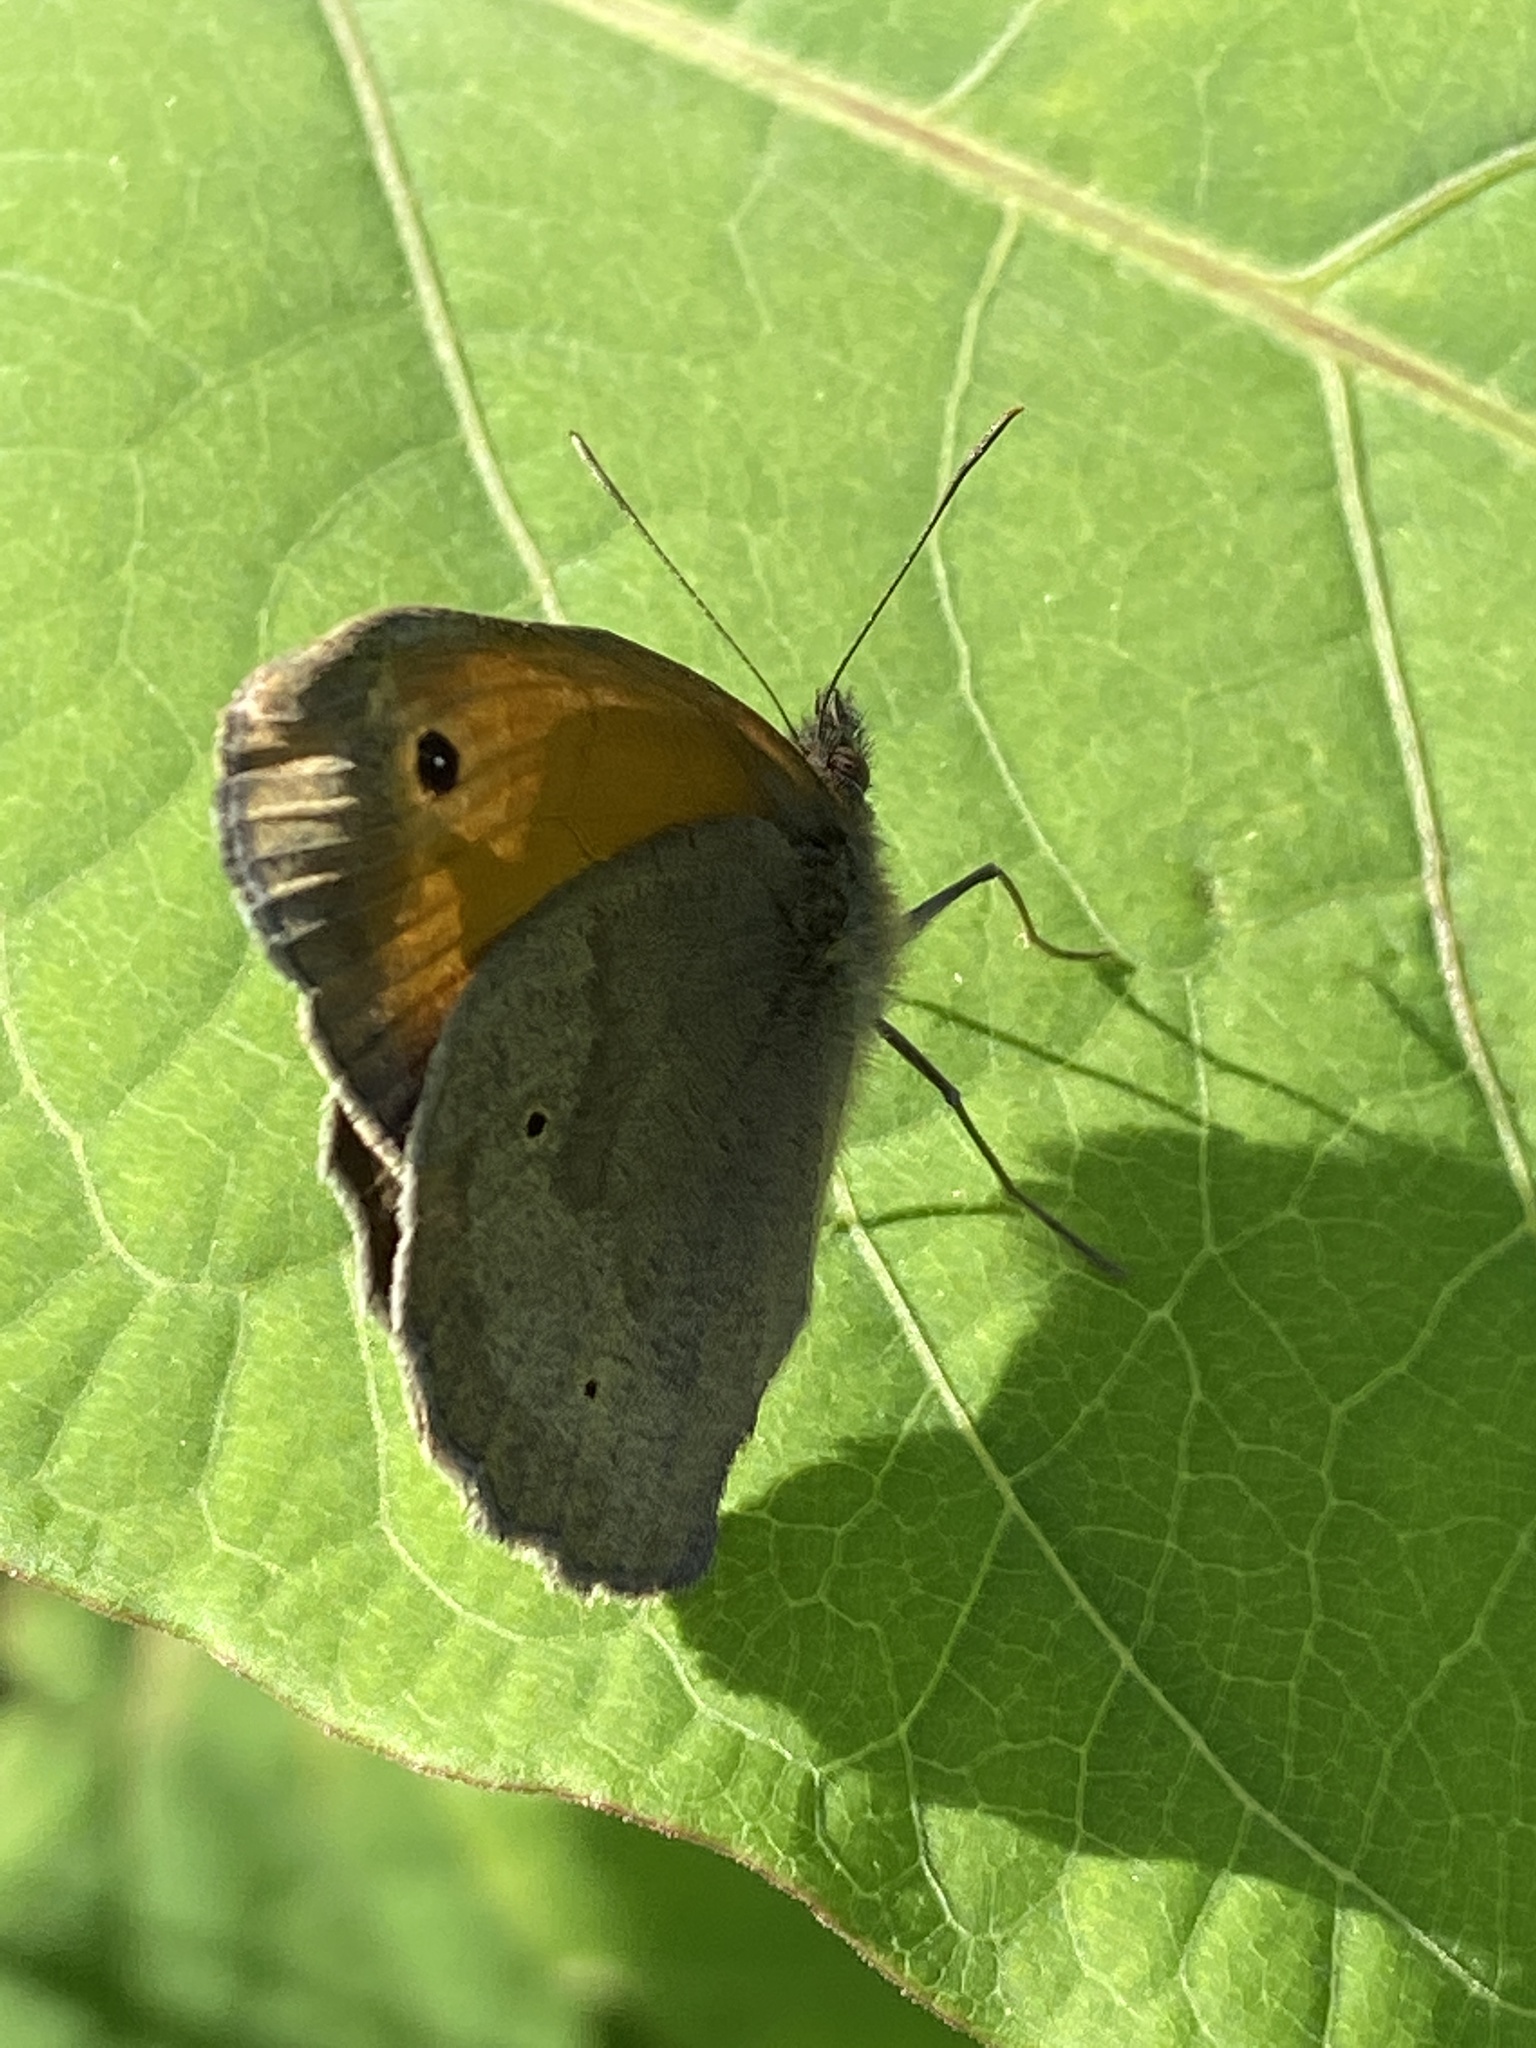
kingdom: Animalia
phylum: Arthropoda
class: Insecta
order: Lepidoptera
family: Nymphalidae
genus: Maniola
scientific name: Maniola jurtina
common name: Meadow brown
